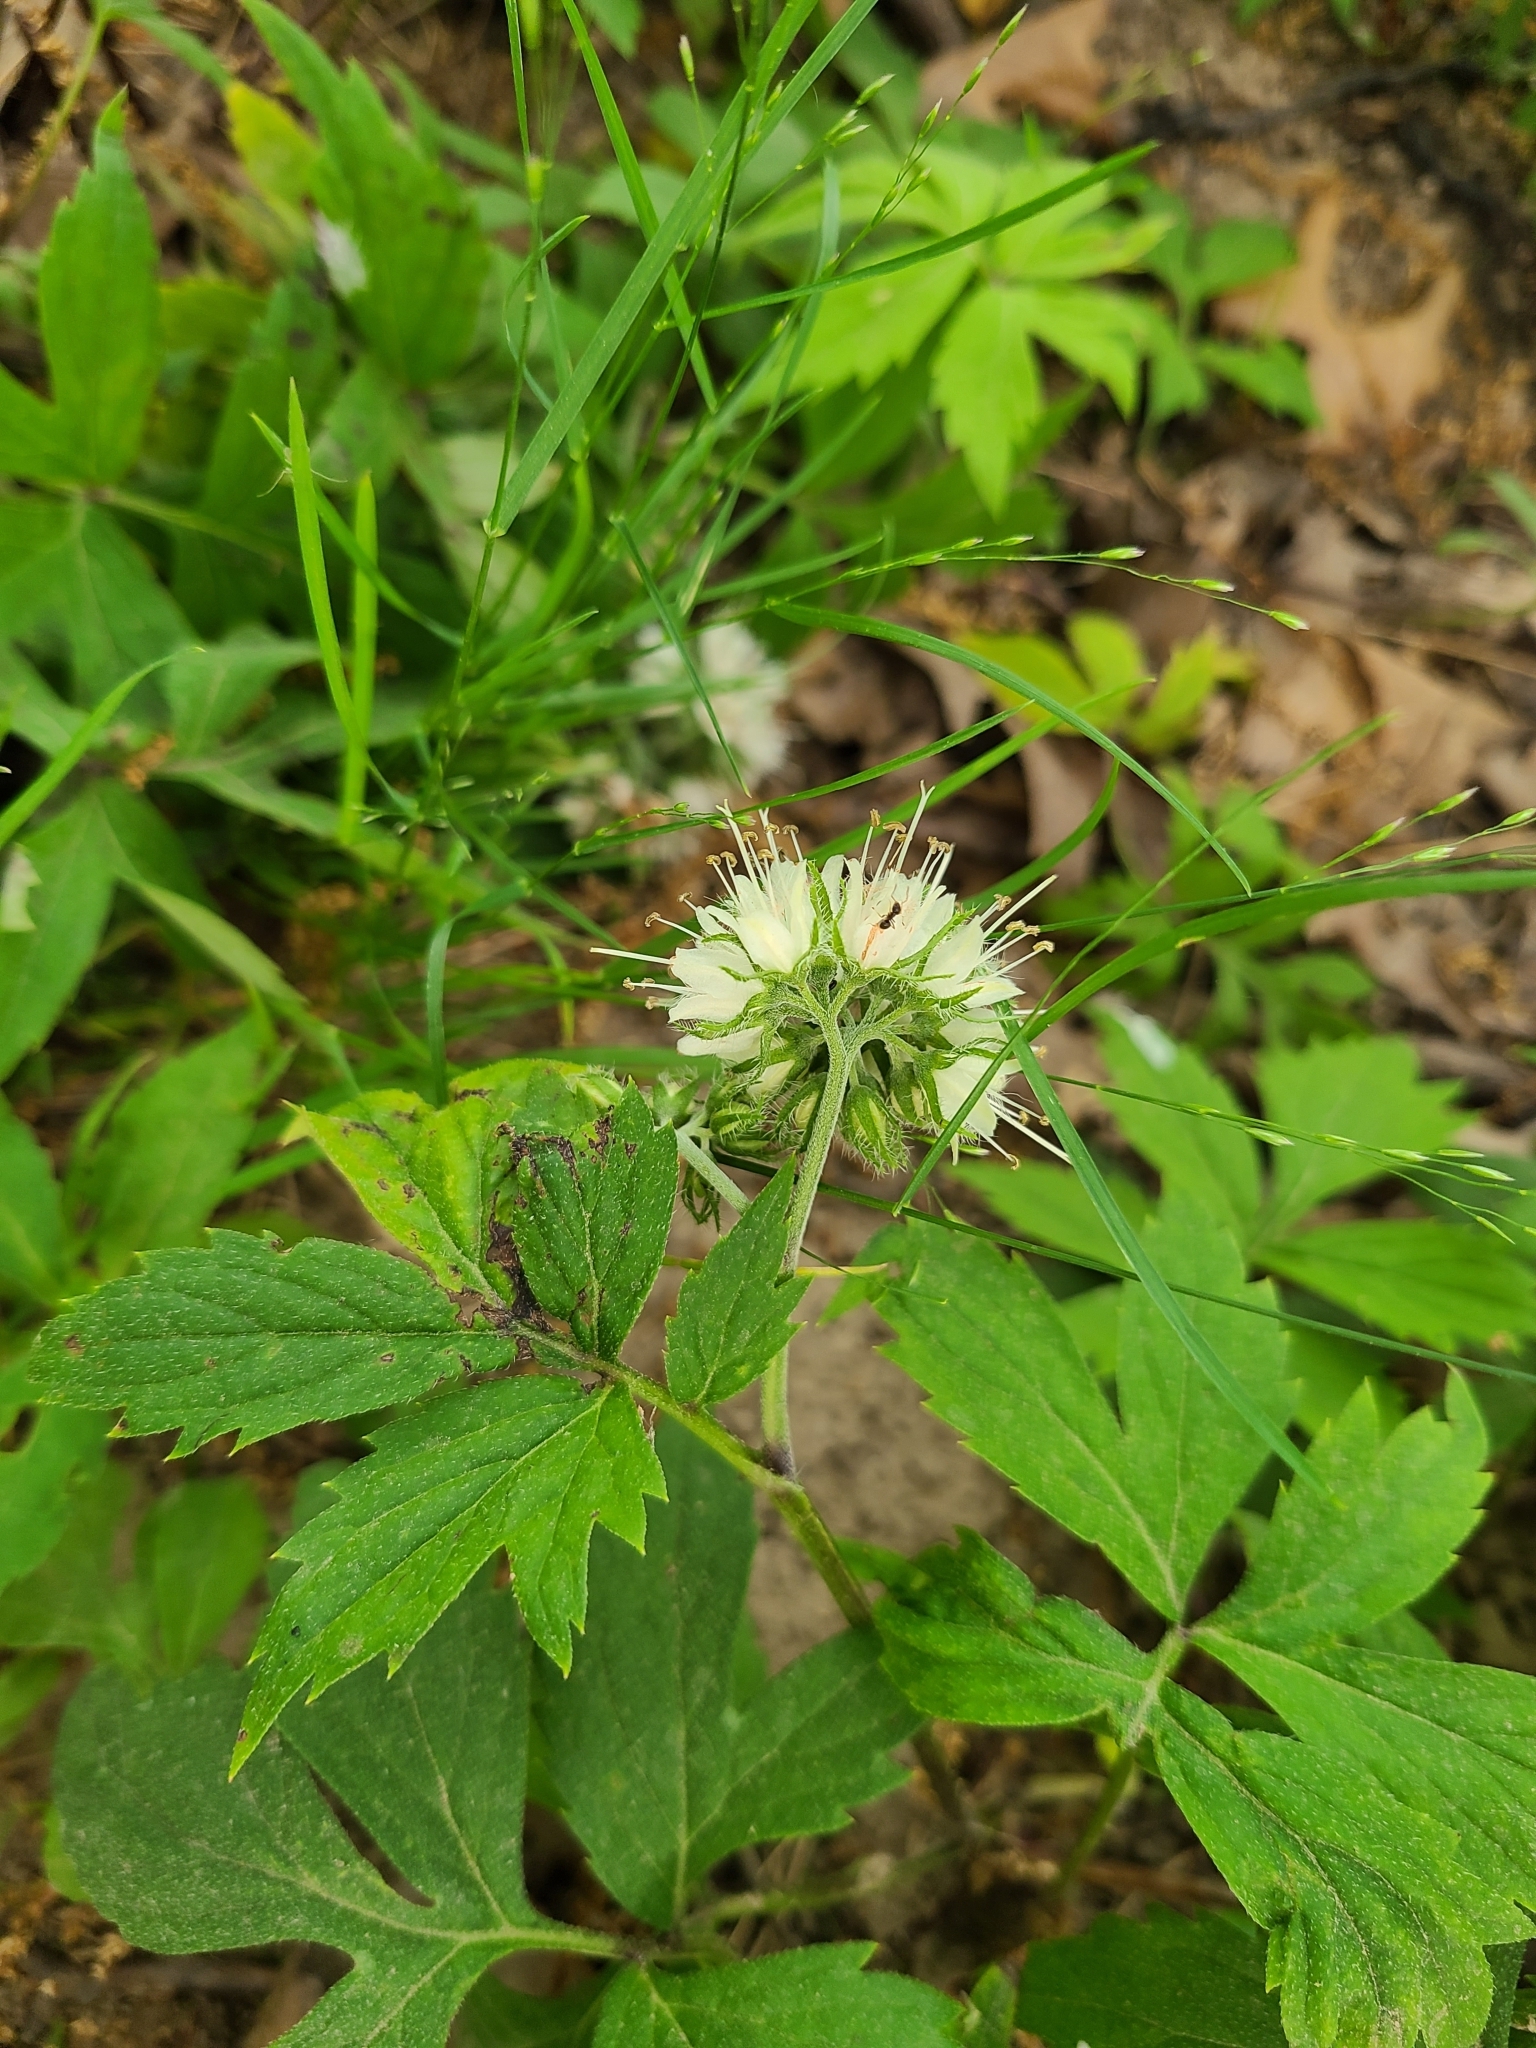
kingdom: Plantae
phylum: Tracheophyta
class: Magnoliopsida
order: Boraginales
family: Hydrophyllaceae
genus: Hydrophyllum
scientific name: Hydrophyllum virginianum
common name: Virginia waterleaf
